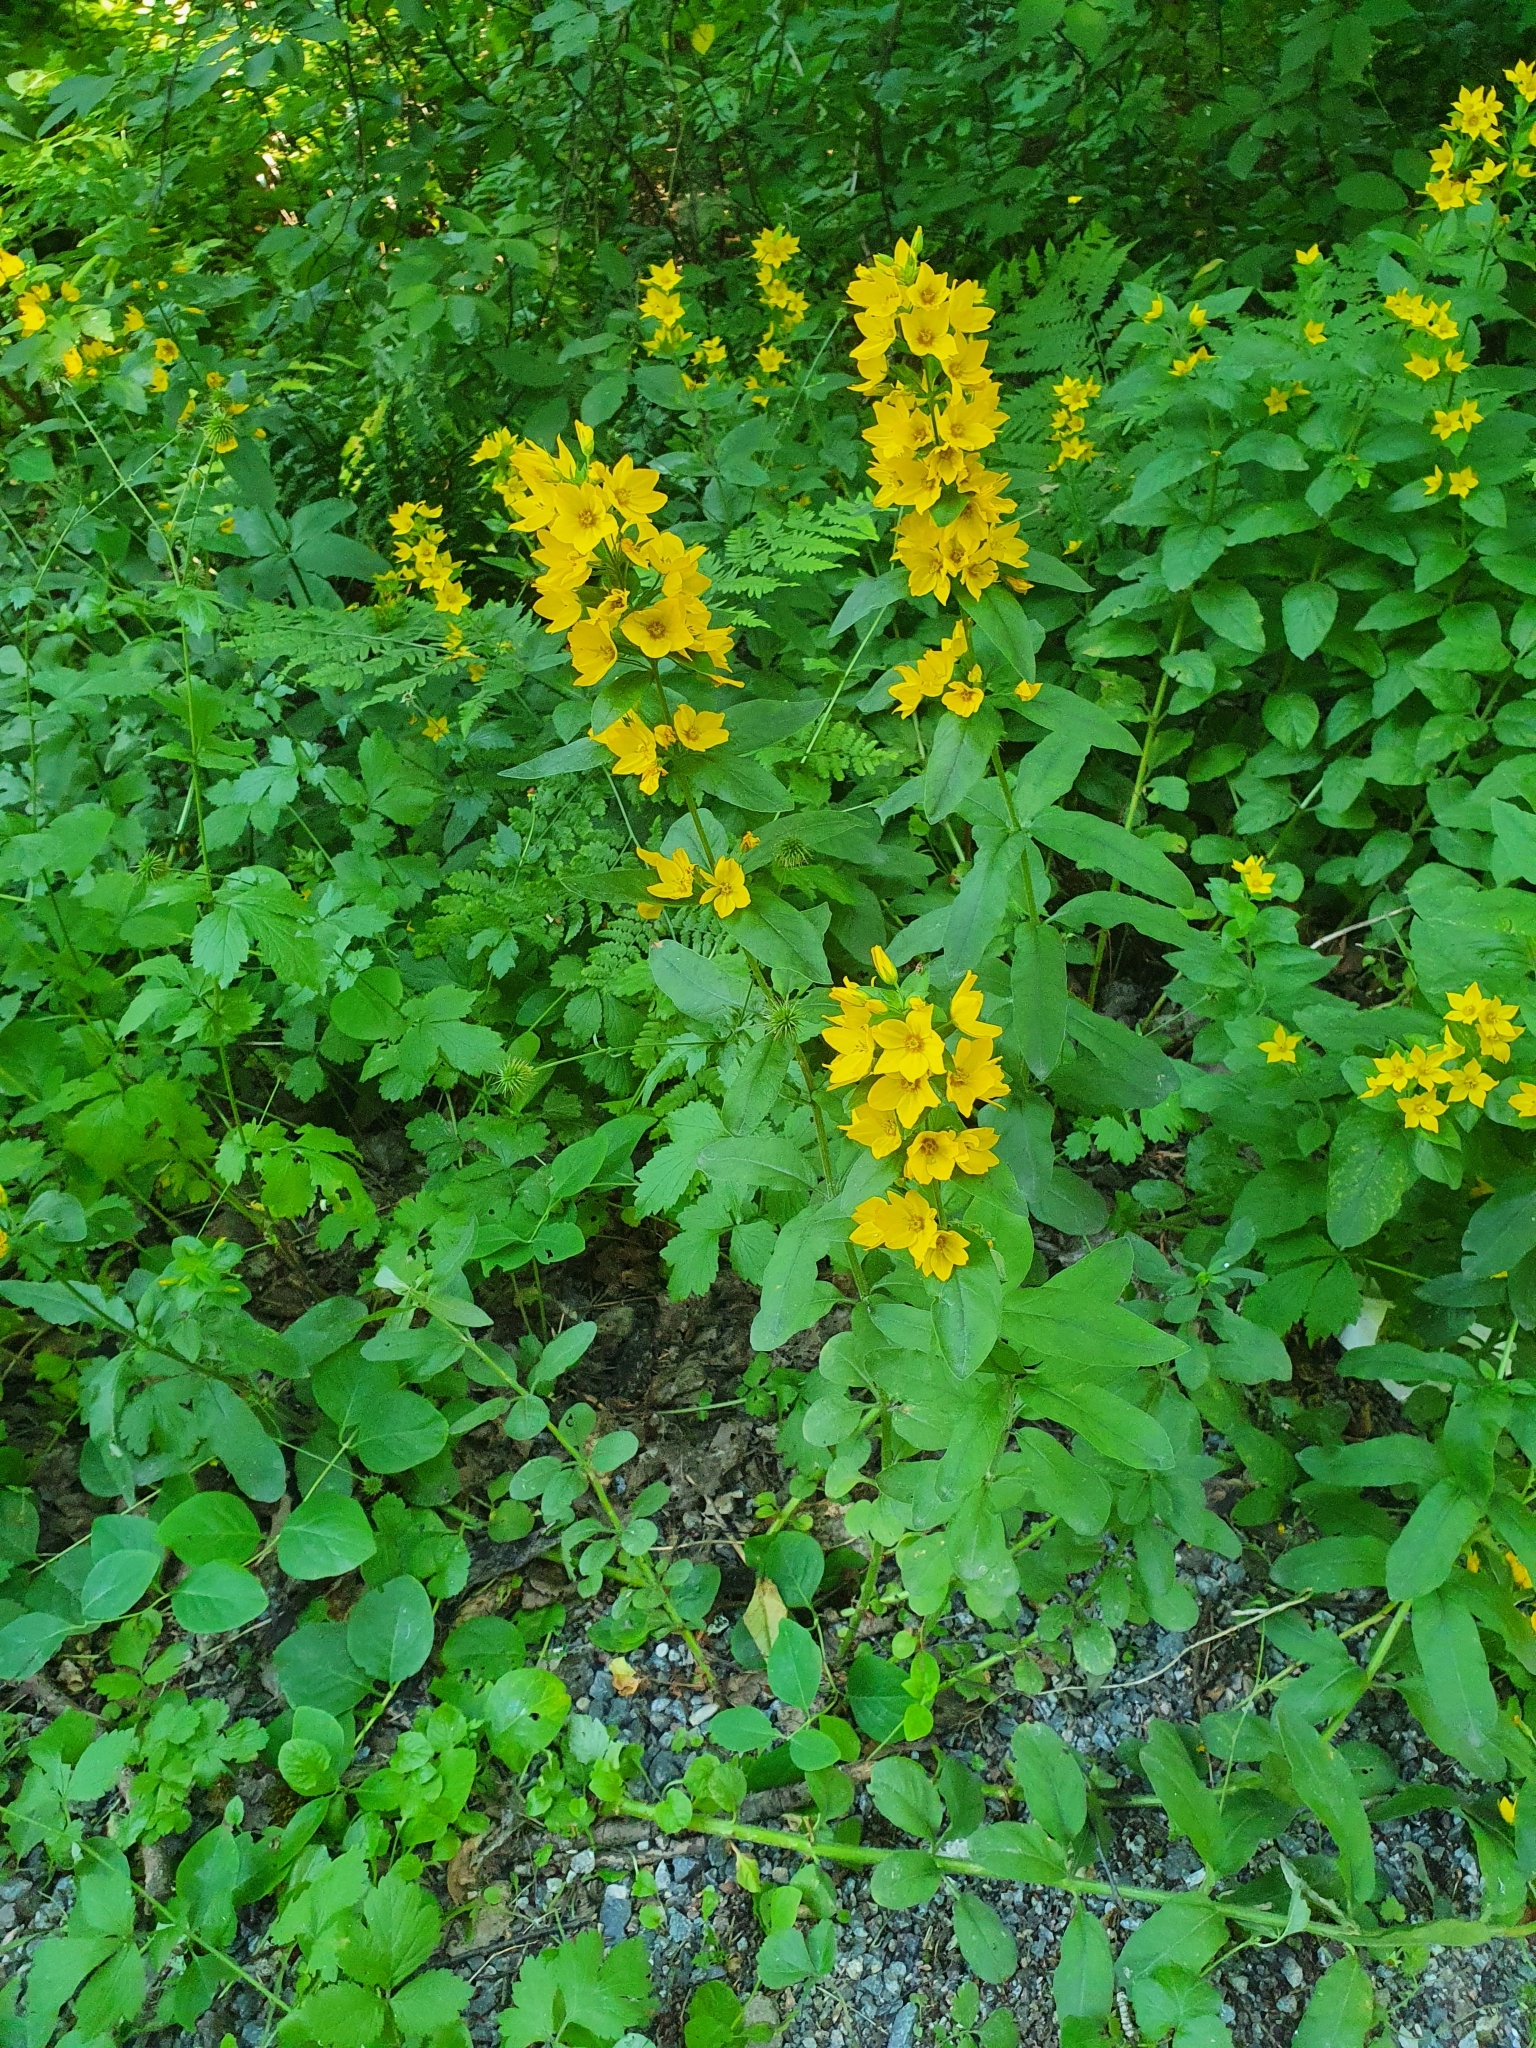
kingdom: Plantae
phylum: Tracheophyta
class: Magnoliopsida
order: Ericales
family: Primulaceae
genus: Lysimachia
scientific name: Lysimachia punctata
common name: Dotted loosestrife
